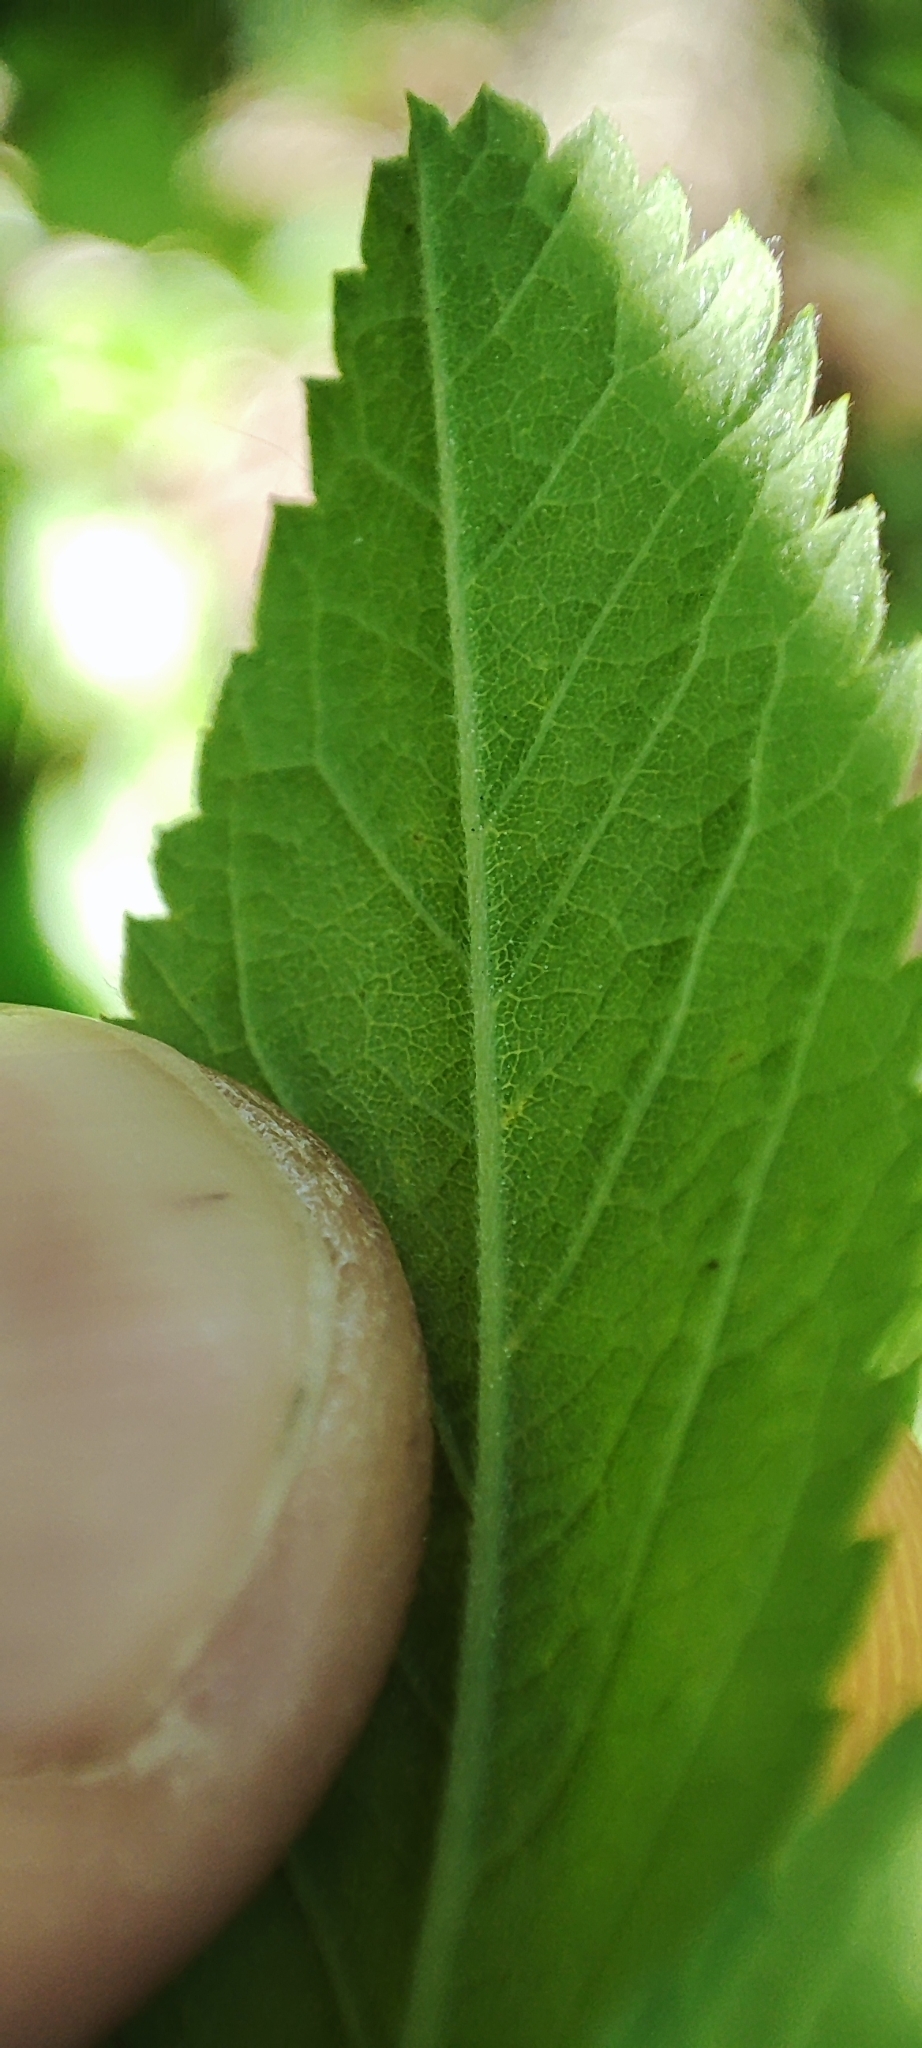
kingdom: Plantae
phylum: Tracheophyta
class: Magnoliopsida
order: Rosales
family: Rosaceae
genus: Rosa
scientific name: Rosa majalis
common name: Cinnamon rose
